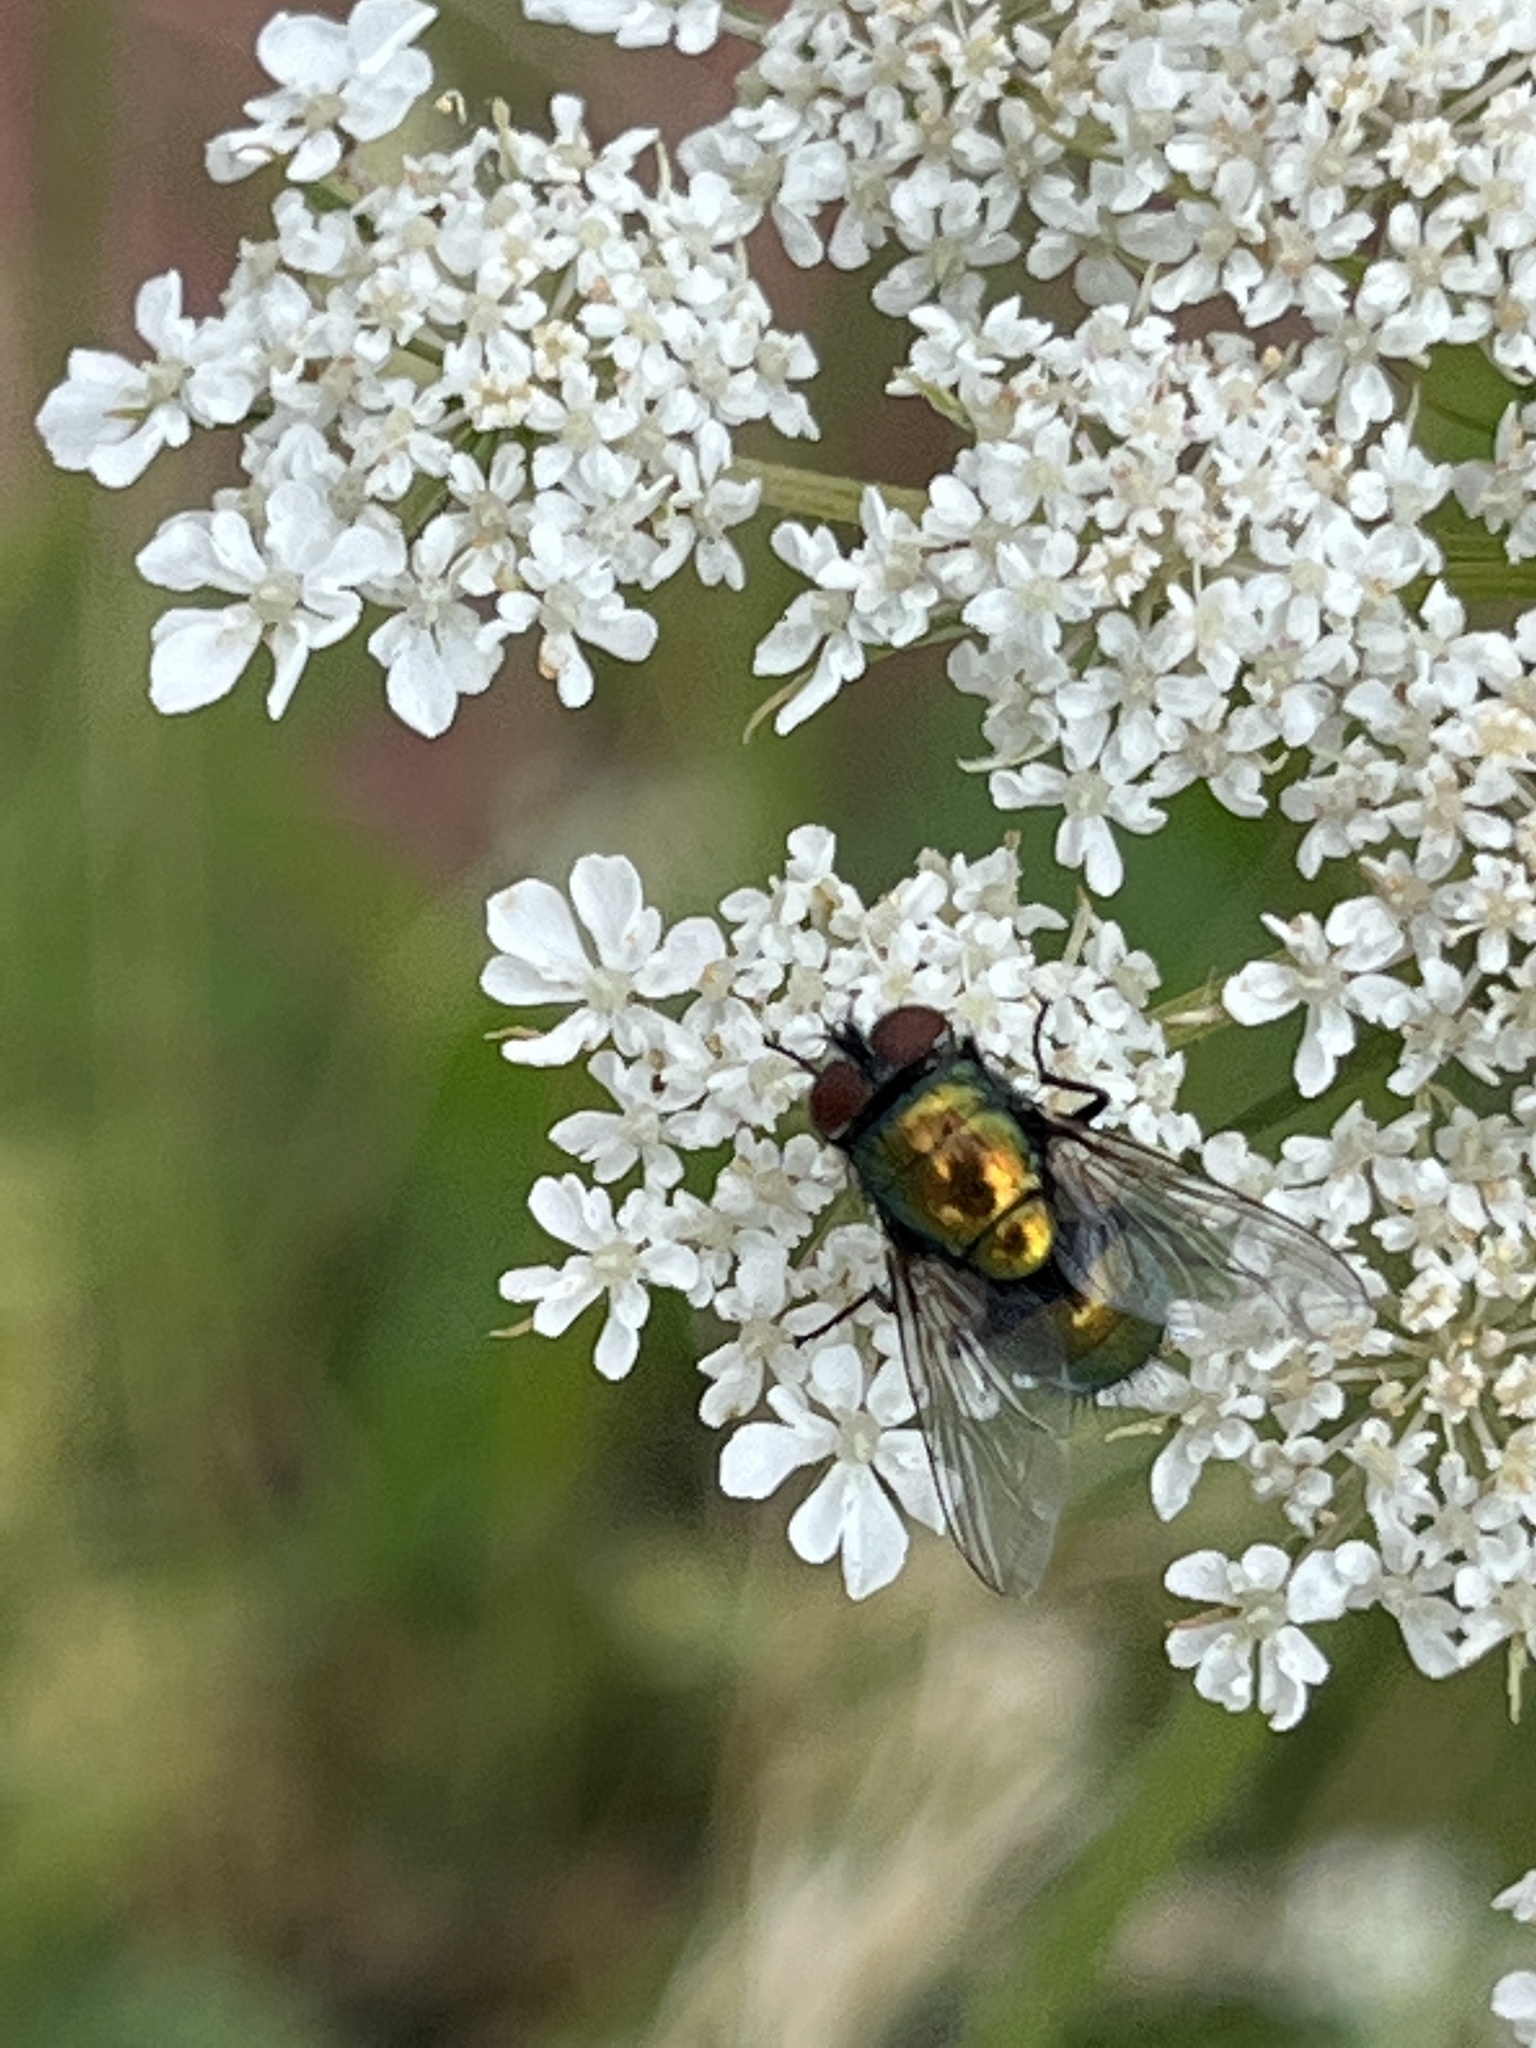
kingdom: Animalia
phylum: Arthropoda
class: Insecta
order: Diptera
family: Calliphoridae
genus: Lucilia
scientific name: Lucilia sericata
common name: Blow fly
